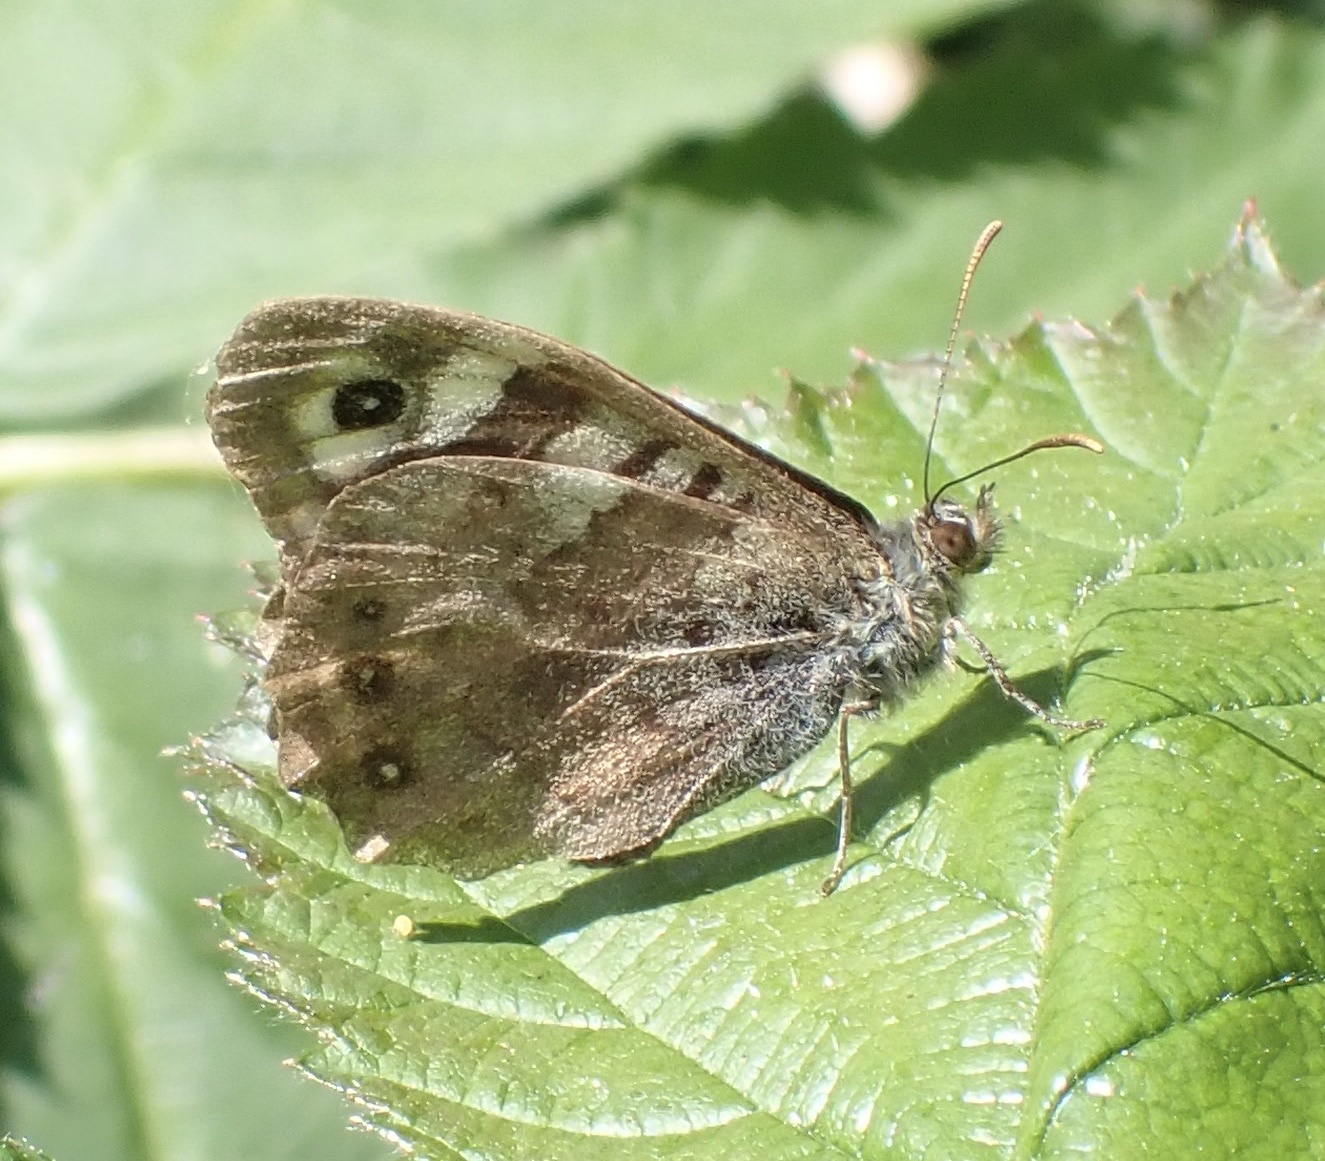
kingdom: Animalia
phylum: Arthropoda
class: Insecta
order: Lepidoptera
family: Nymphalidae
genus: Pararge
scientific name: Pararge aegeria
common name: Speckled wood
